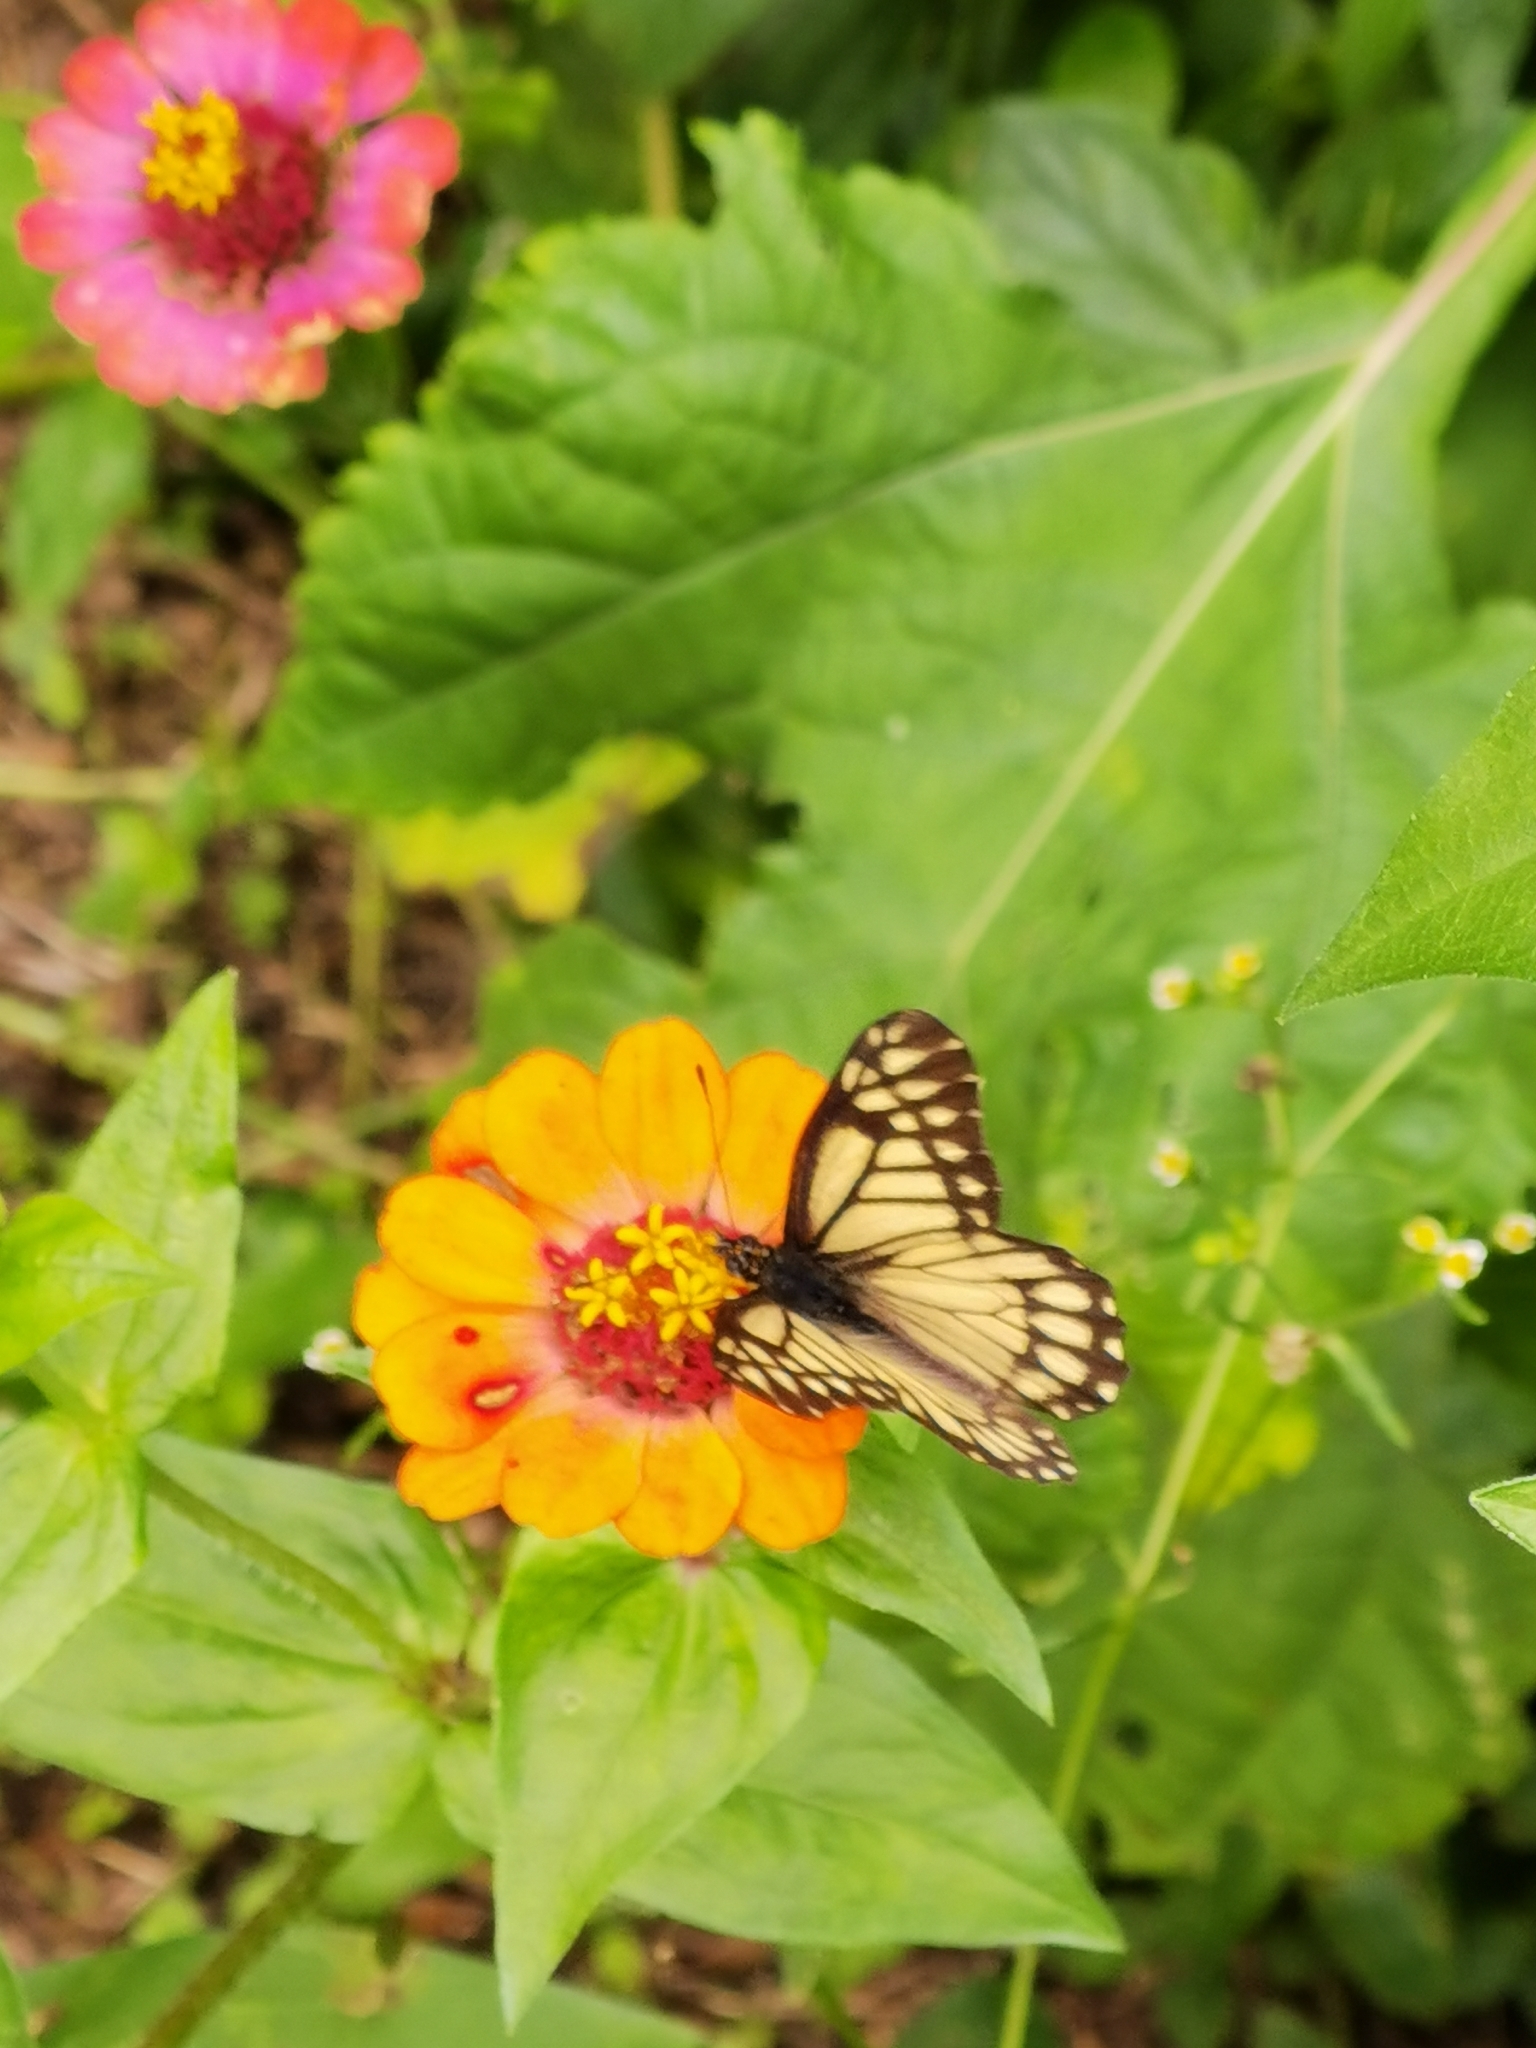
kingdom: Animalia
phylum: Arthropoda
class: Insecta
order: Lepidoptera
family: Pieridae
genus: Archonias
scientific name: Archonias nimbice
